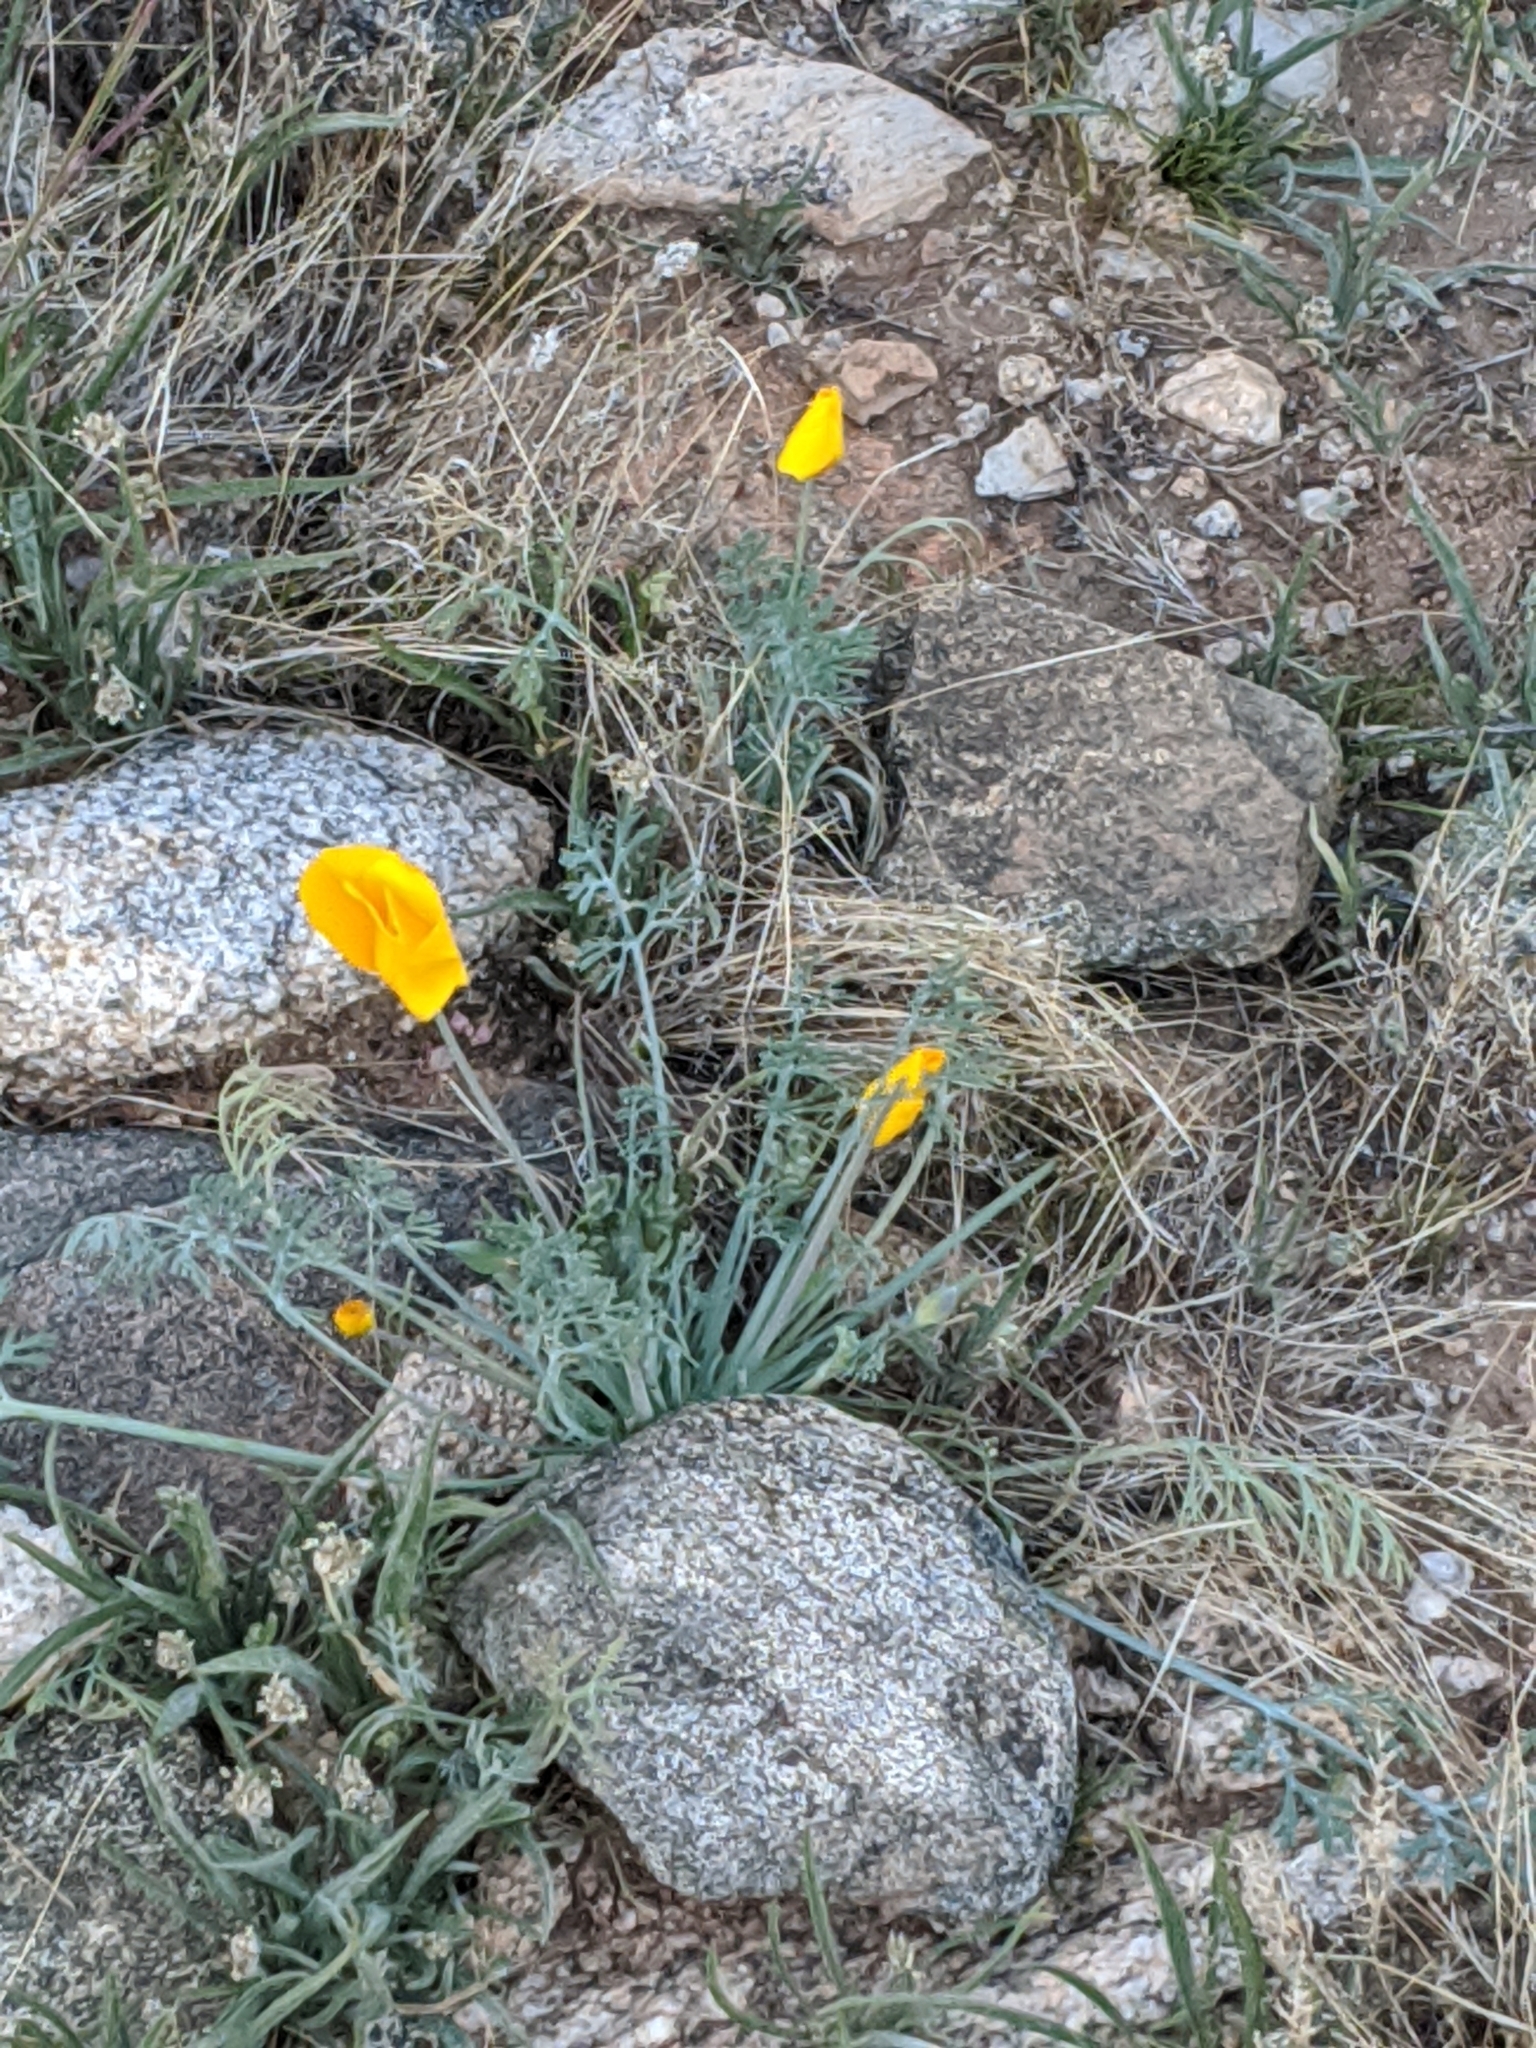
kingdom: Plantae
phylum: Tracheophyta
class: Magnoliopsida
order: Ranunculales
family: Papaveraceae
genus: Eschscholzia
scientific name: Eschscholzia californica
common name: California poppy
